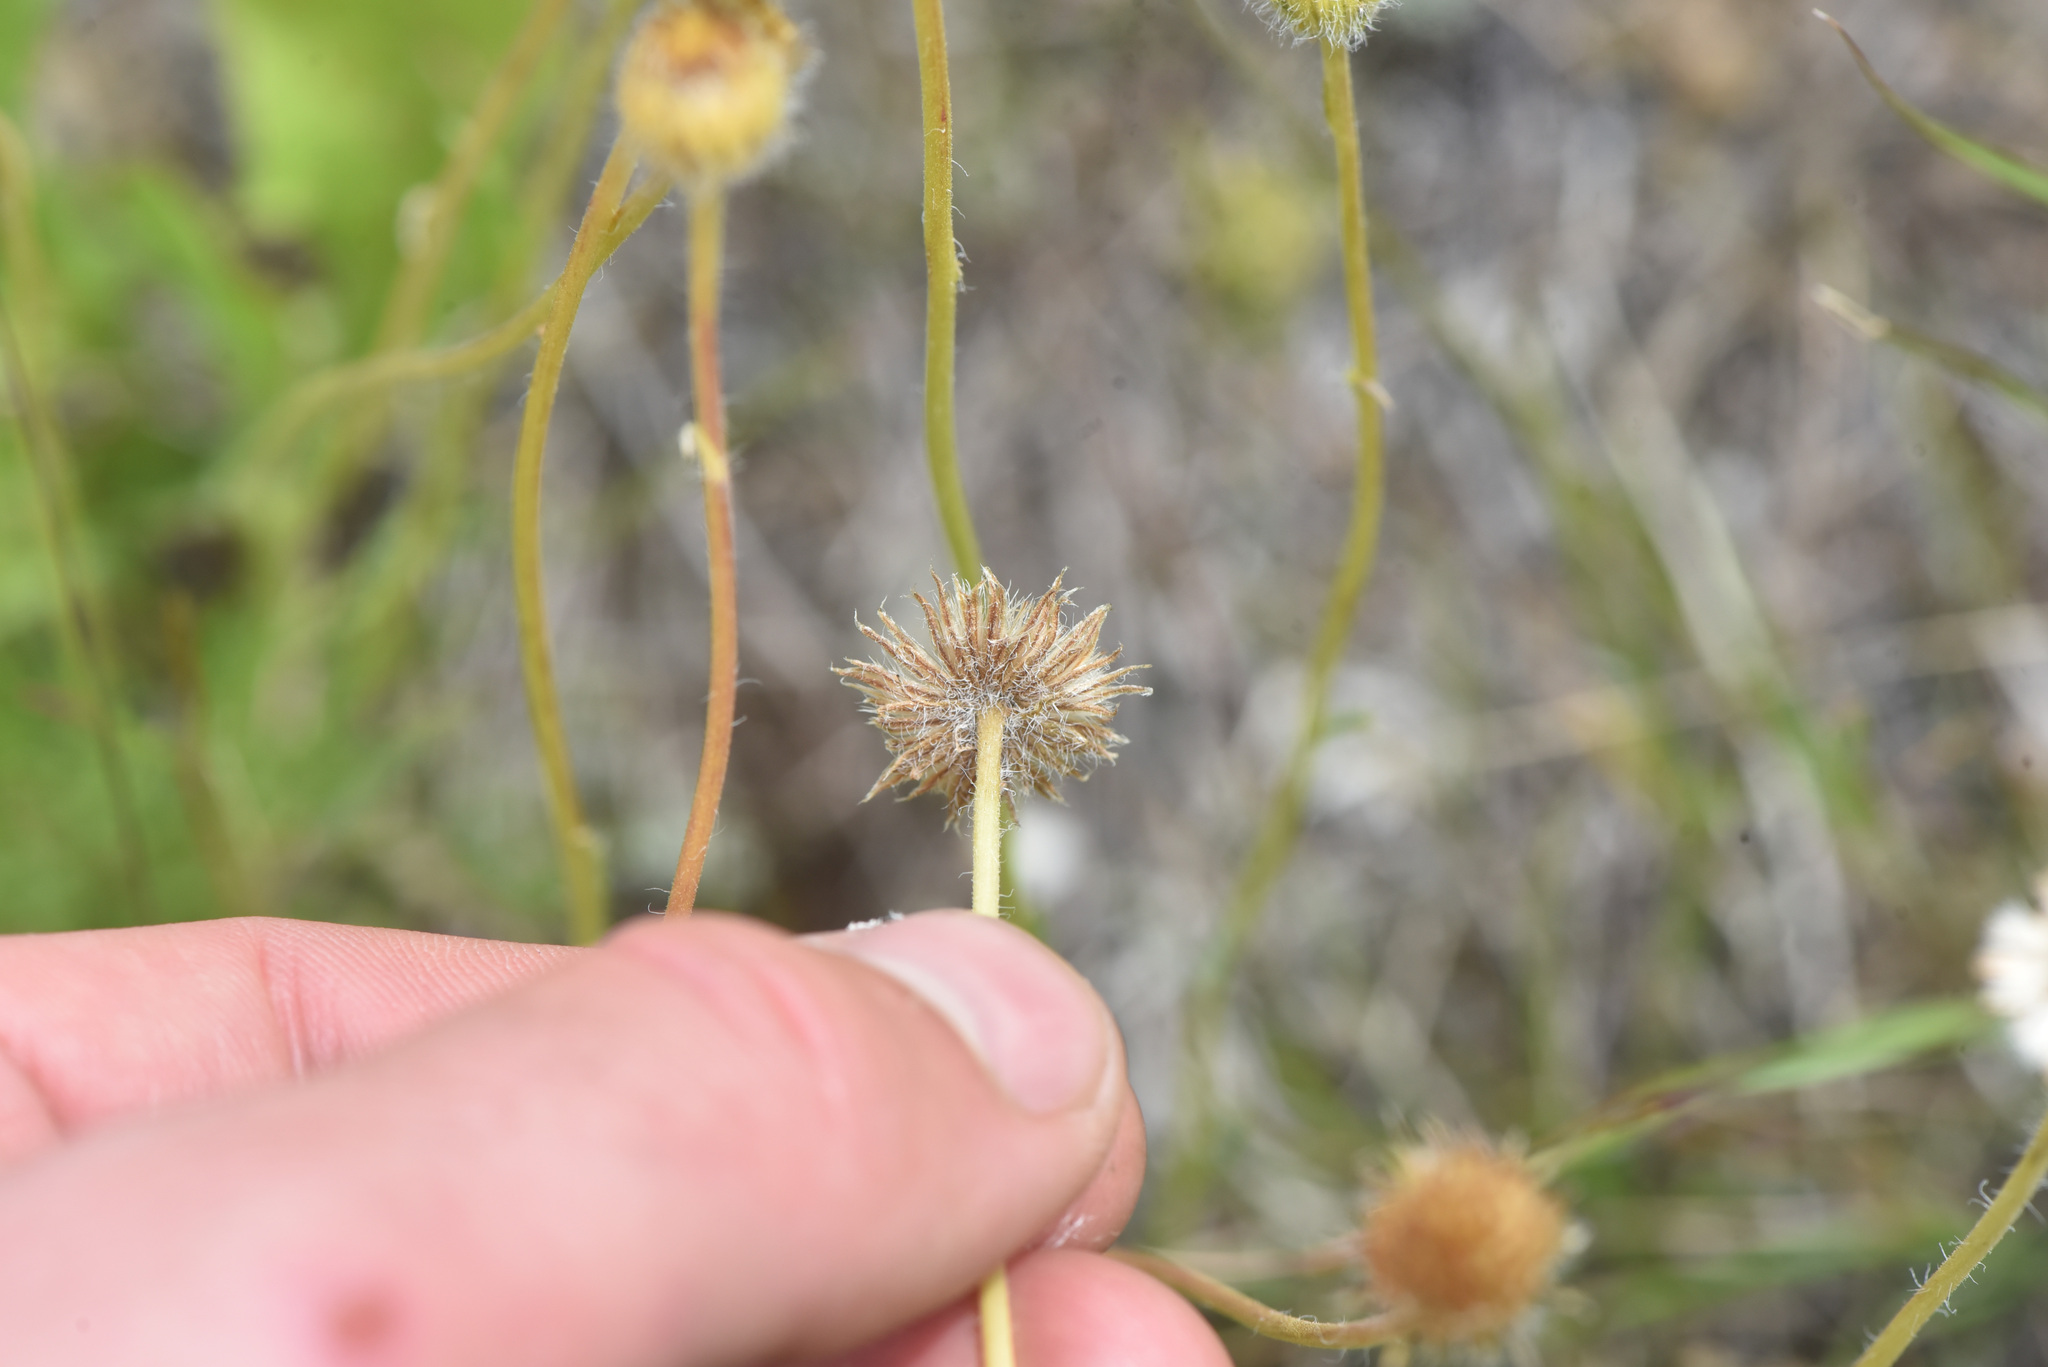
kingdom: Plantae
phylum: Tracheophyta
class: Magnoliopsida
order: Asterales
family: Asteraceae
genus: Erigeron
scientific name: Erigeron compositus
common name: Dwarf mountain fleabane
